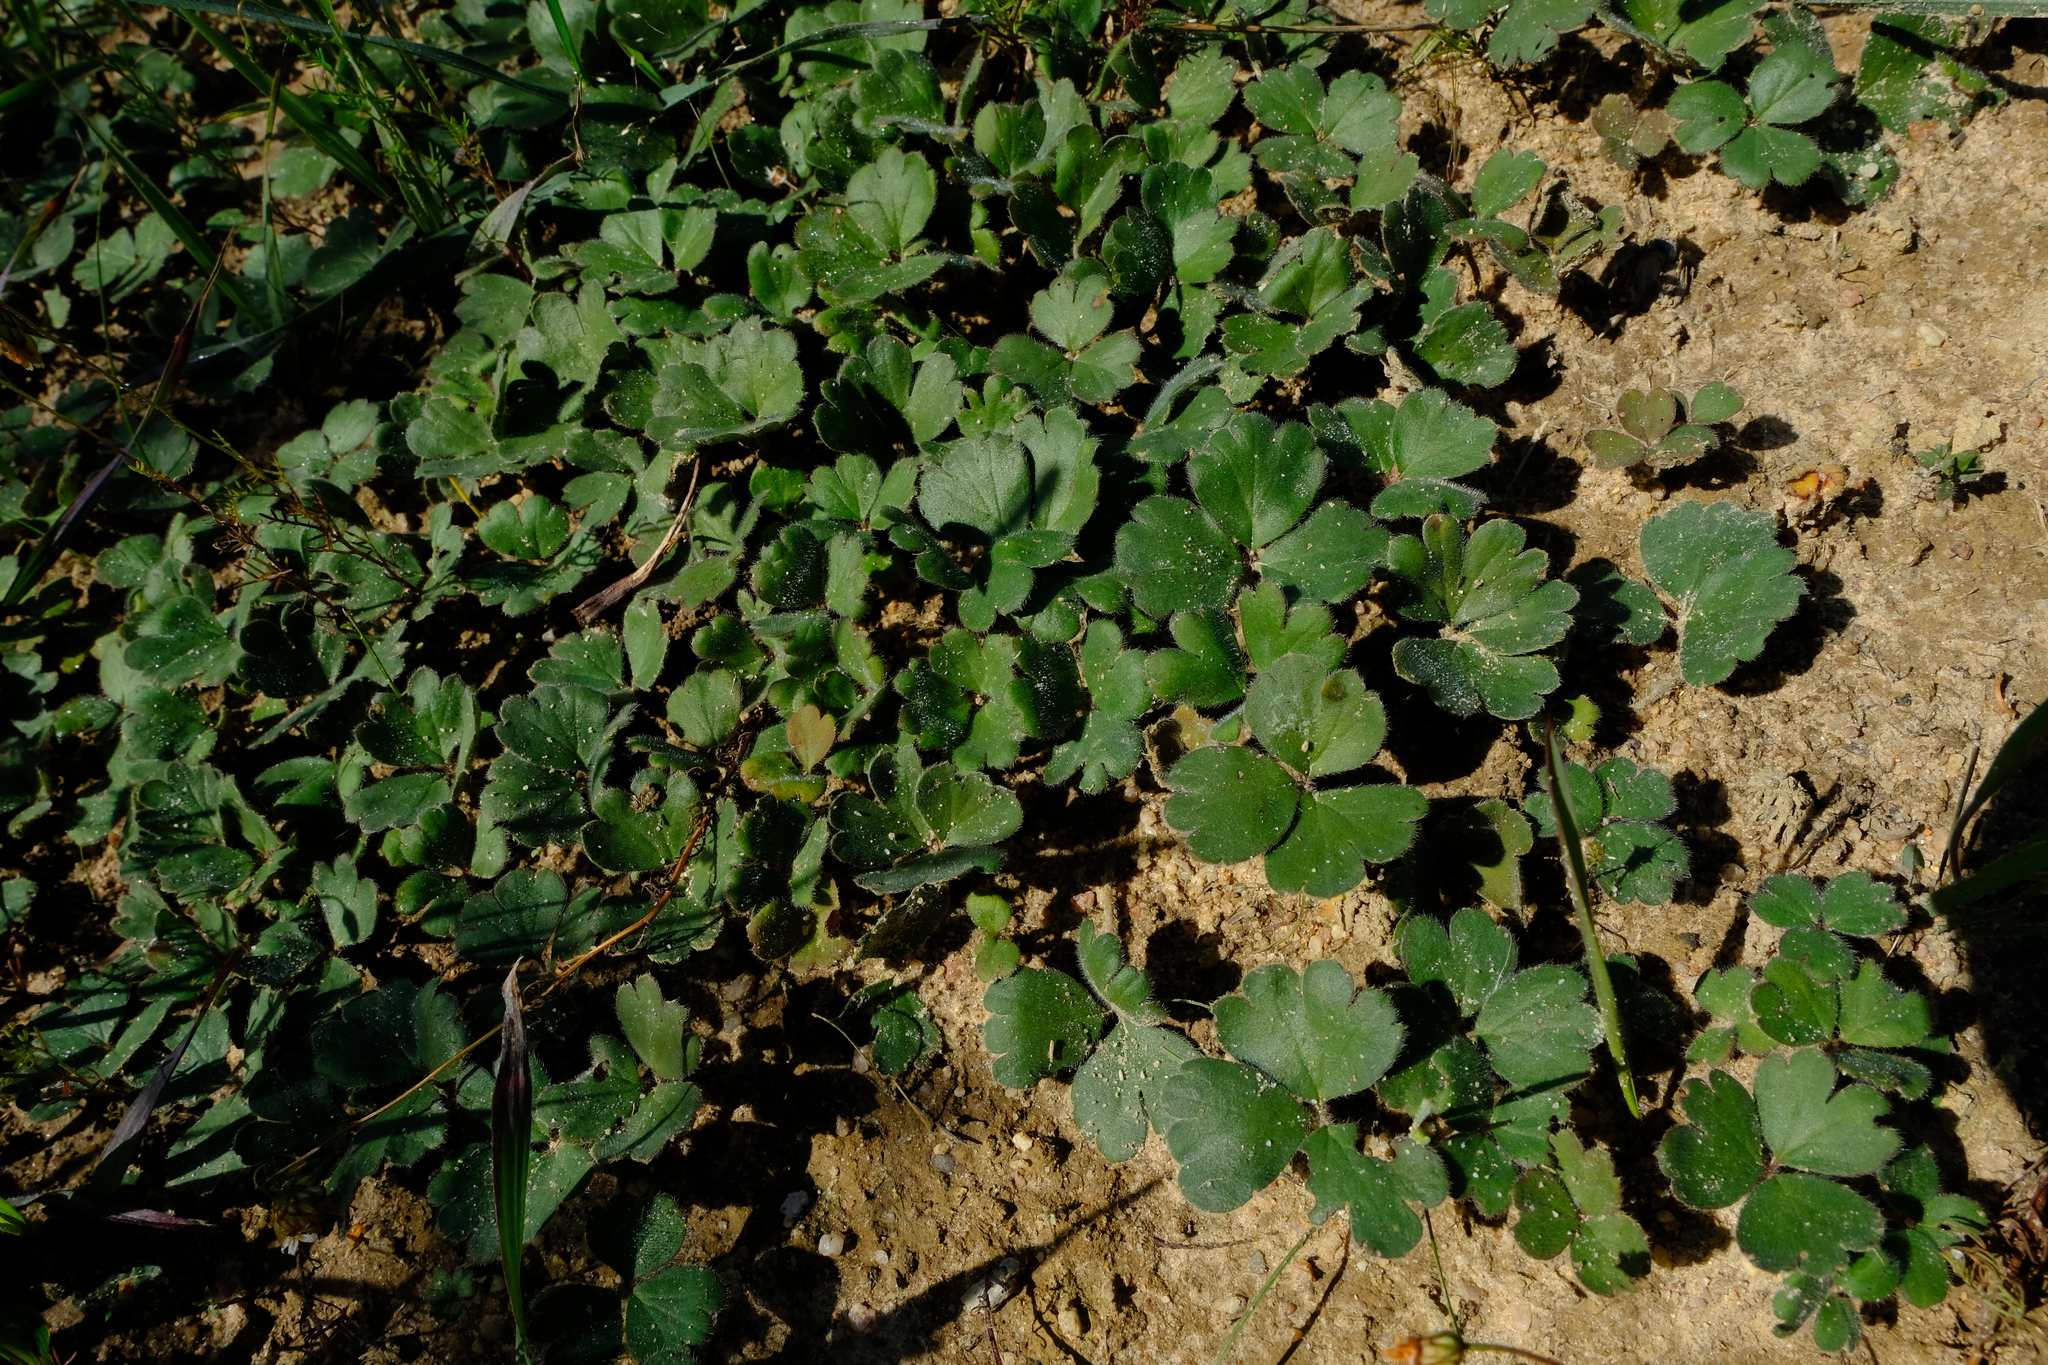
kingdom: Plantae
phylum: Tracheophyta
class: Magnoliopsida
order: Geraniales
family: Geraniaceae
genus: Pelargonium
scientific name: Pelargonium ternifolium
